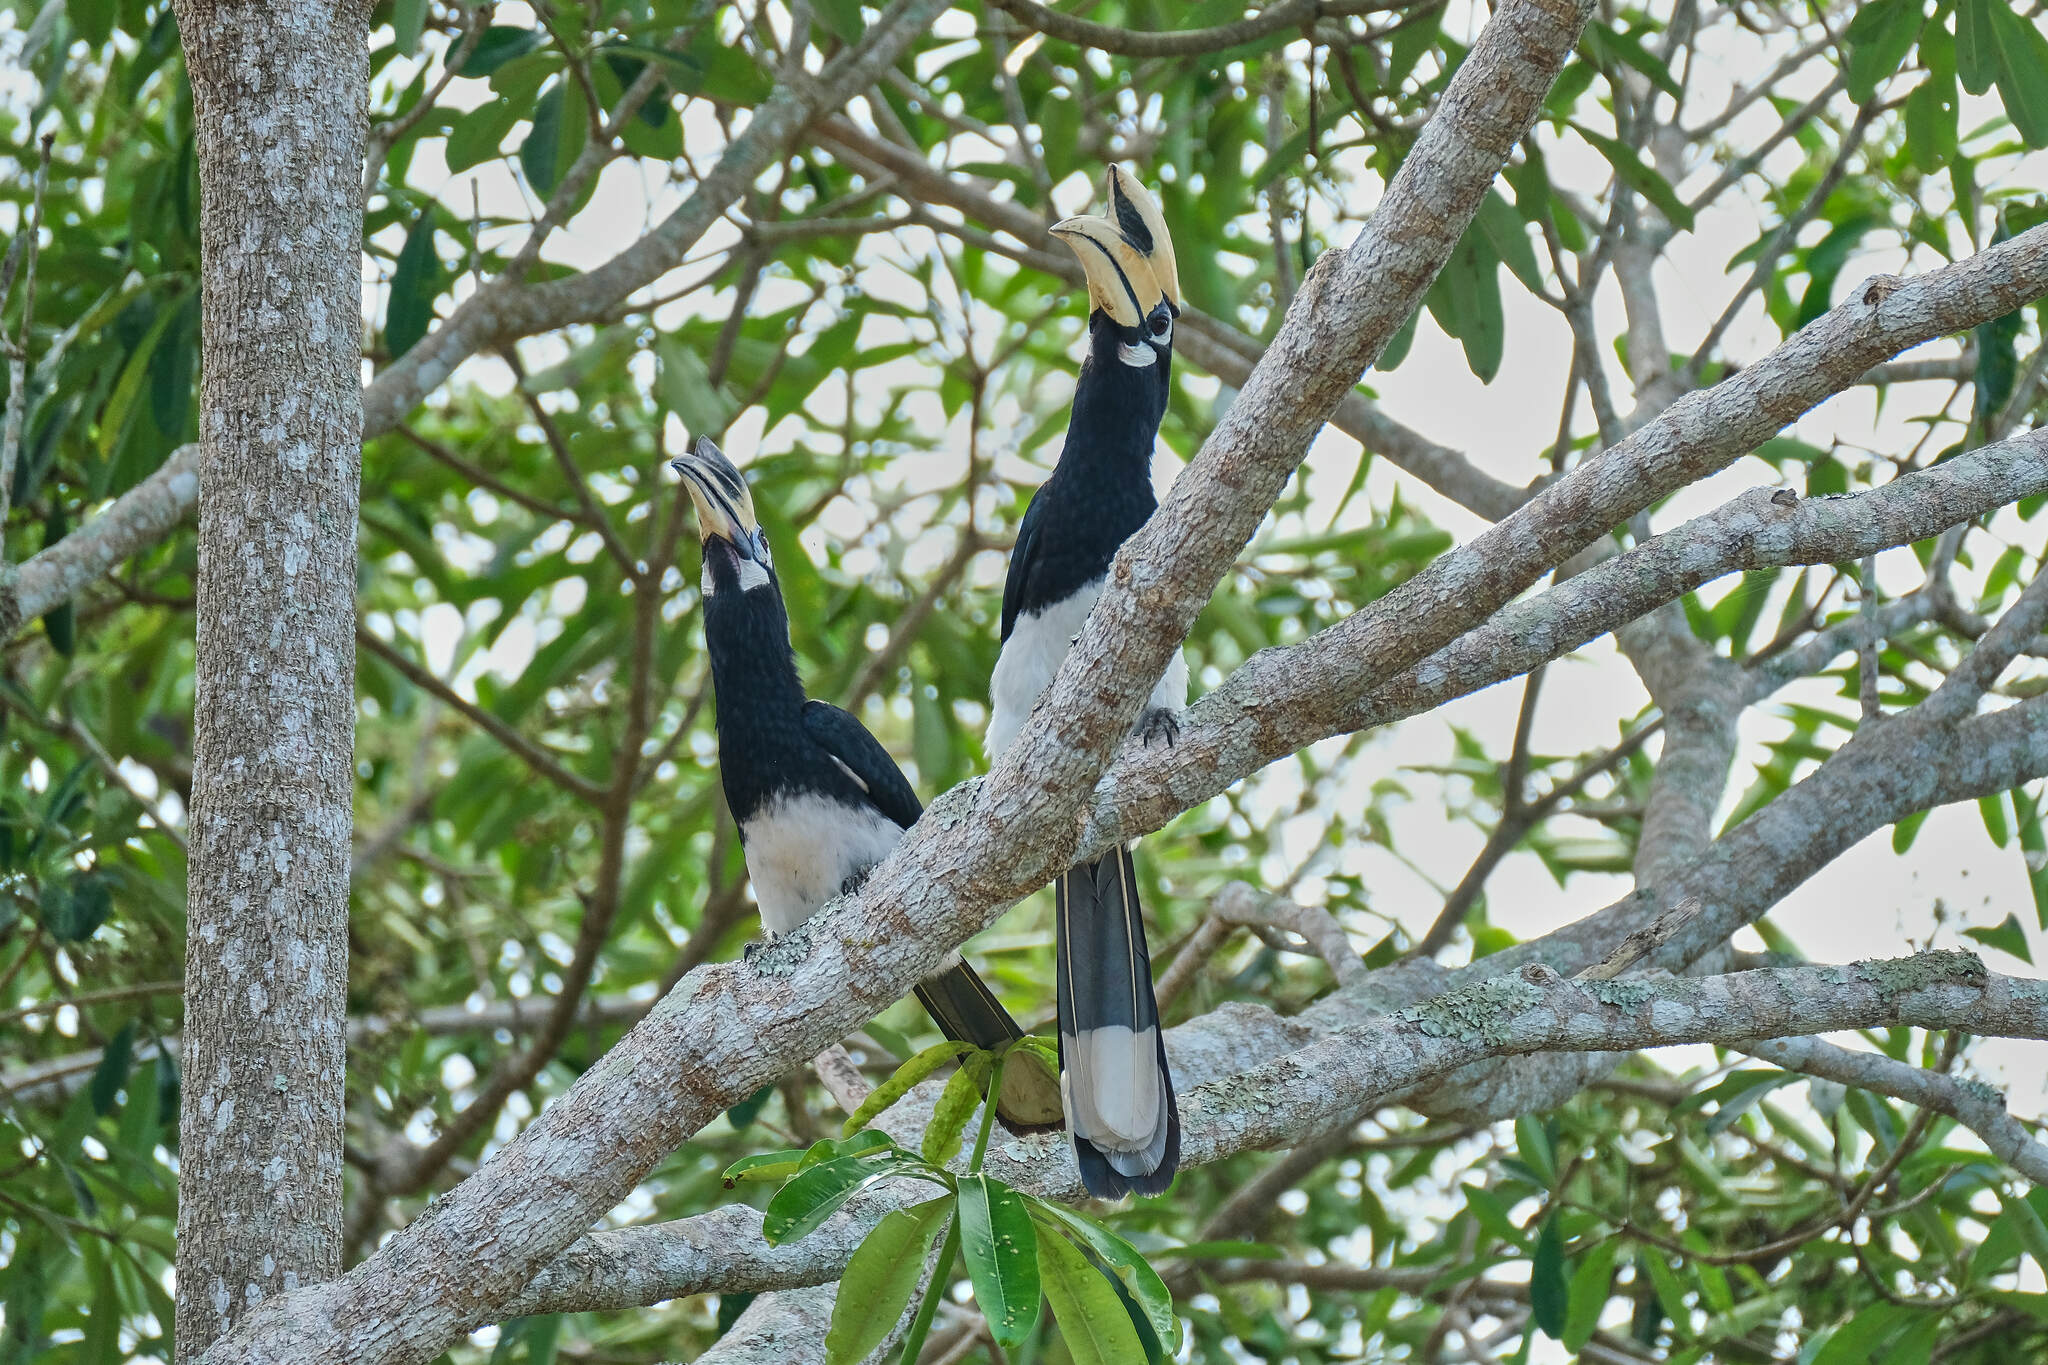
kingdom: Animalia
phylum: Chordata
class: Aves
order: Bucerotiformes
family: Bucerotidae
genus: Anthracoceros
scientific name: Anthracoceros albirostris
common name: Oriental pied-hornbill
